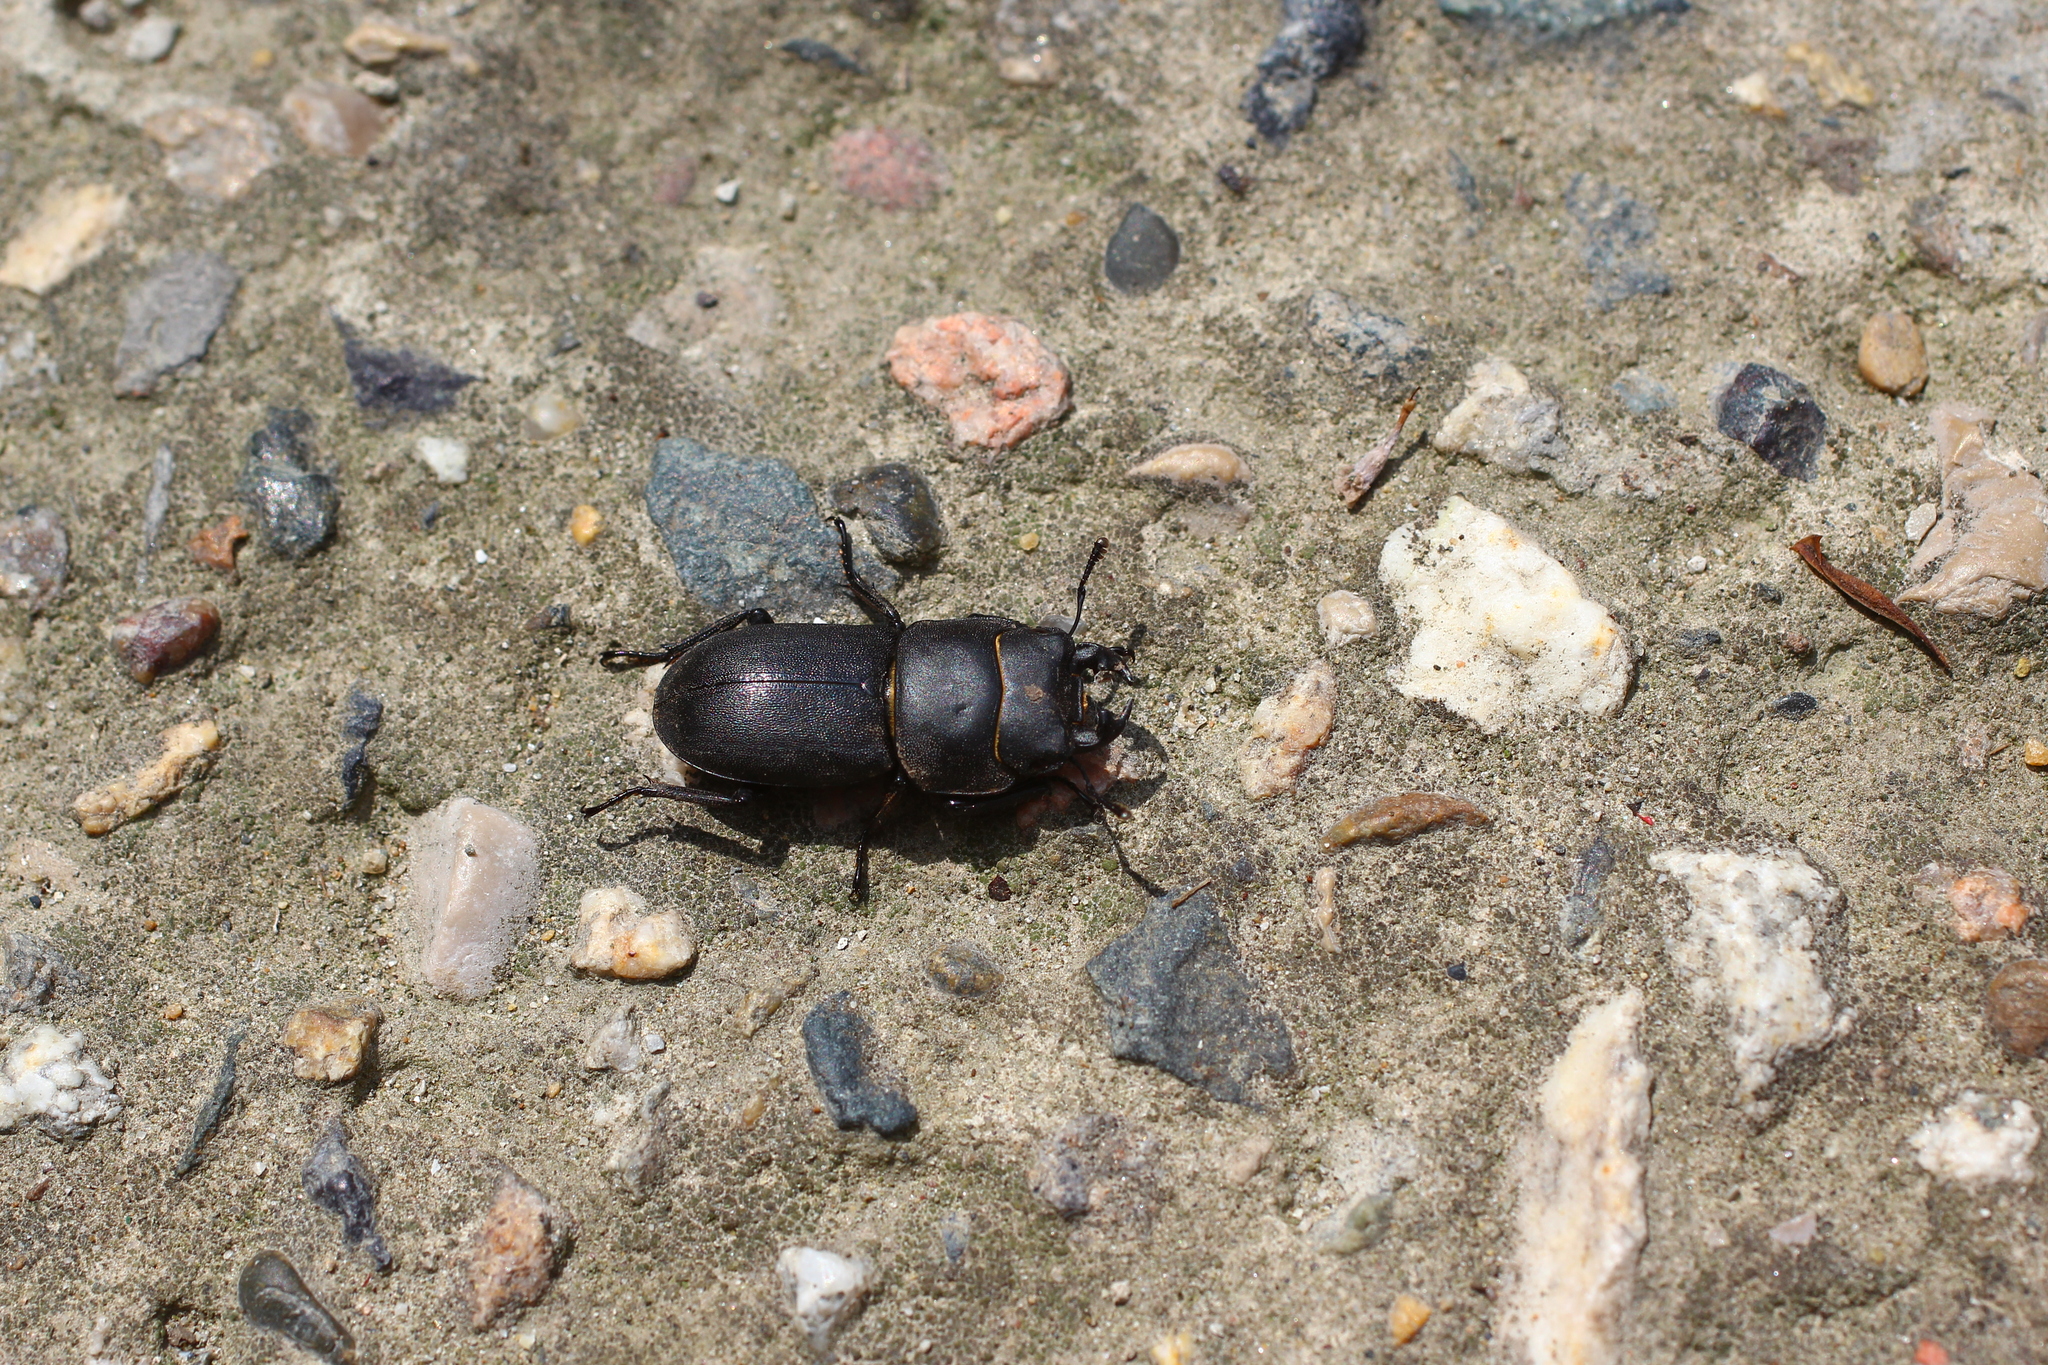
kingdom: Animalia
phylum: Arthropoda
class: Insecta
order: Coleoptera
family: Lucanidae
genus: Dorcus
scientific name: Dorcus parallelipipedus
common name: Lesser stag beetle
